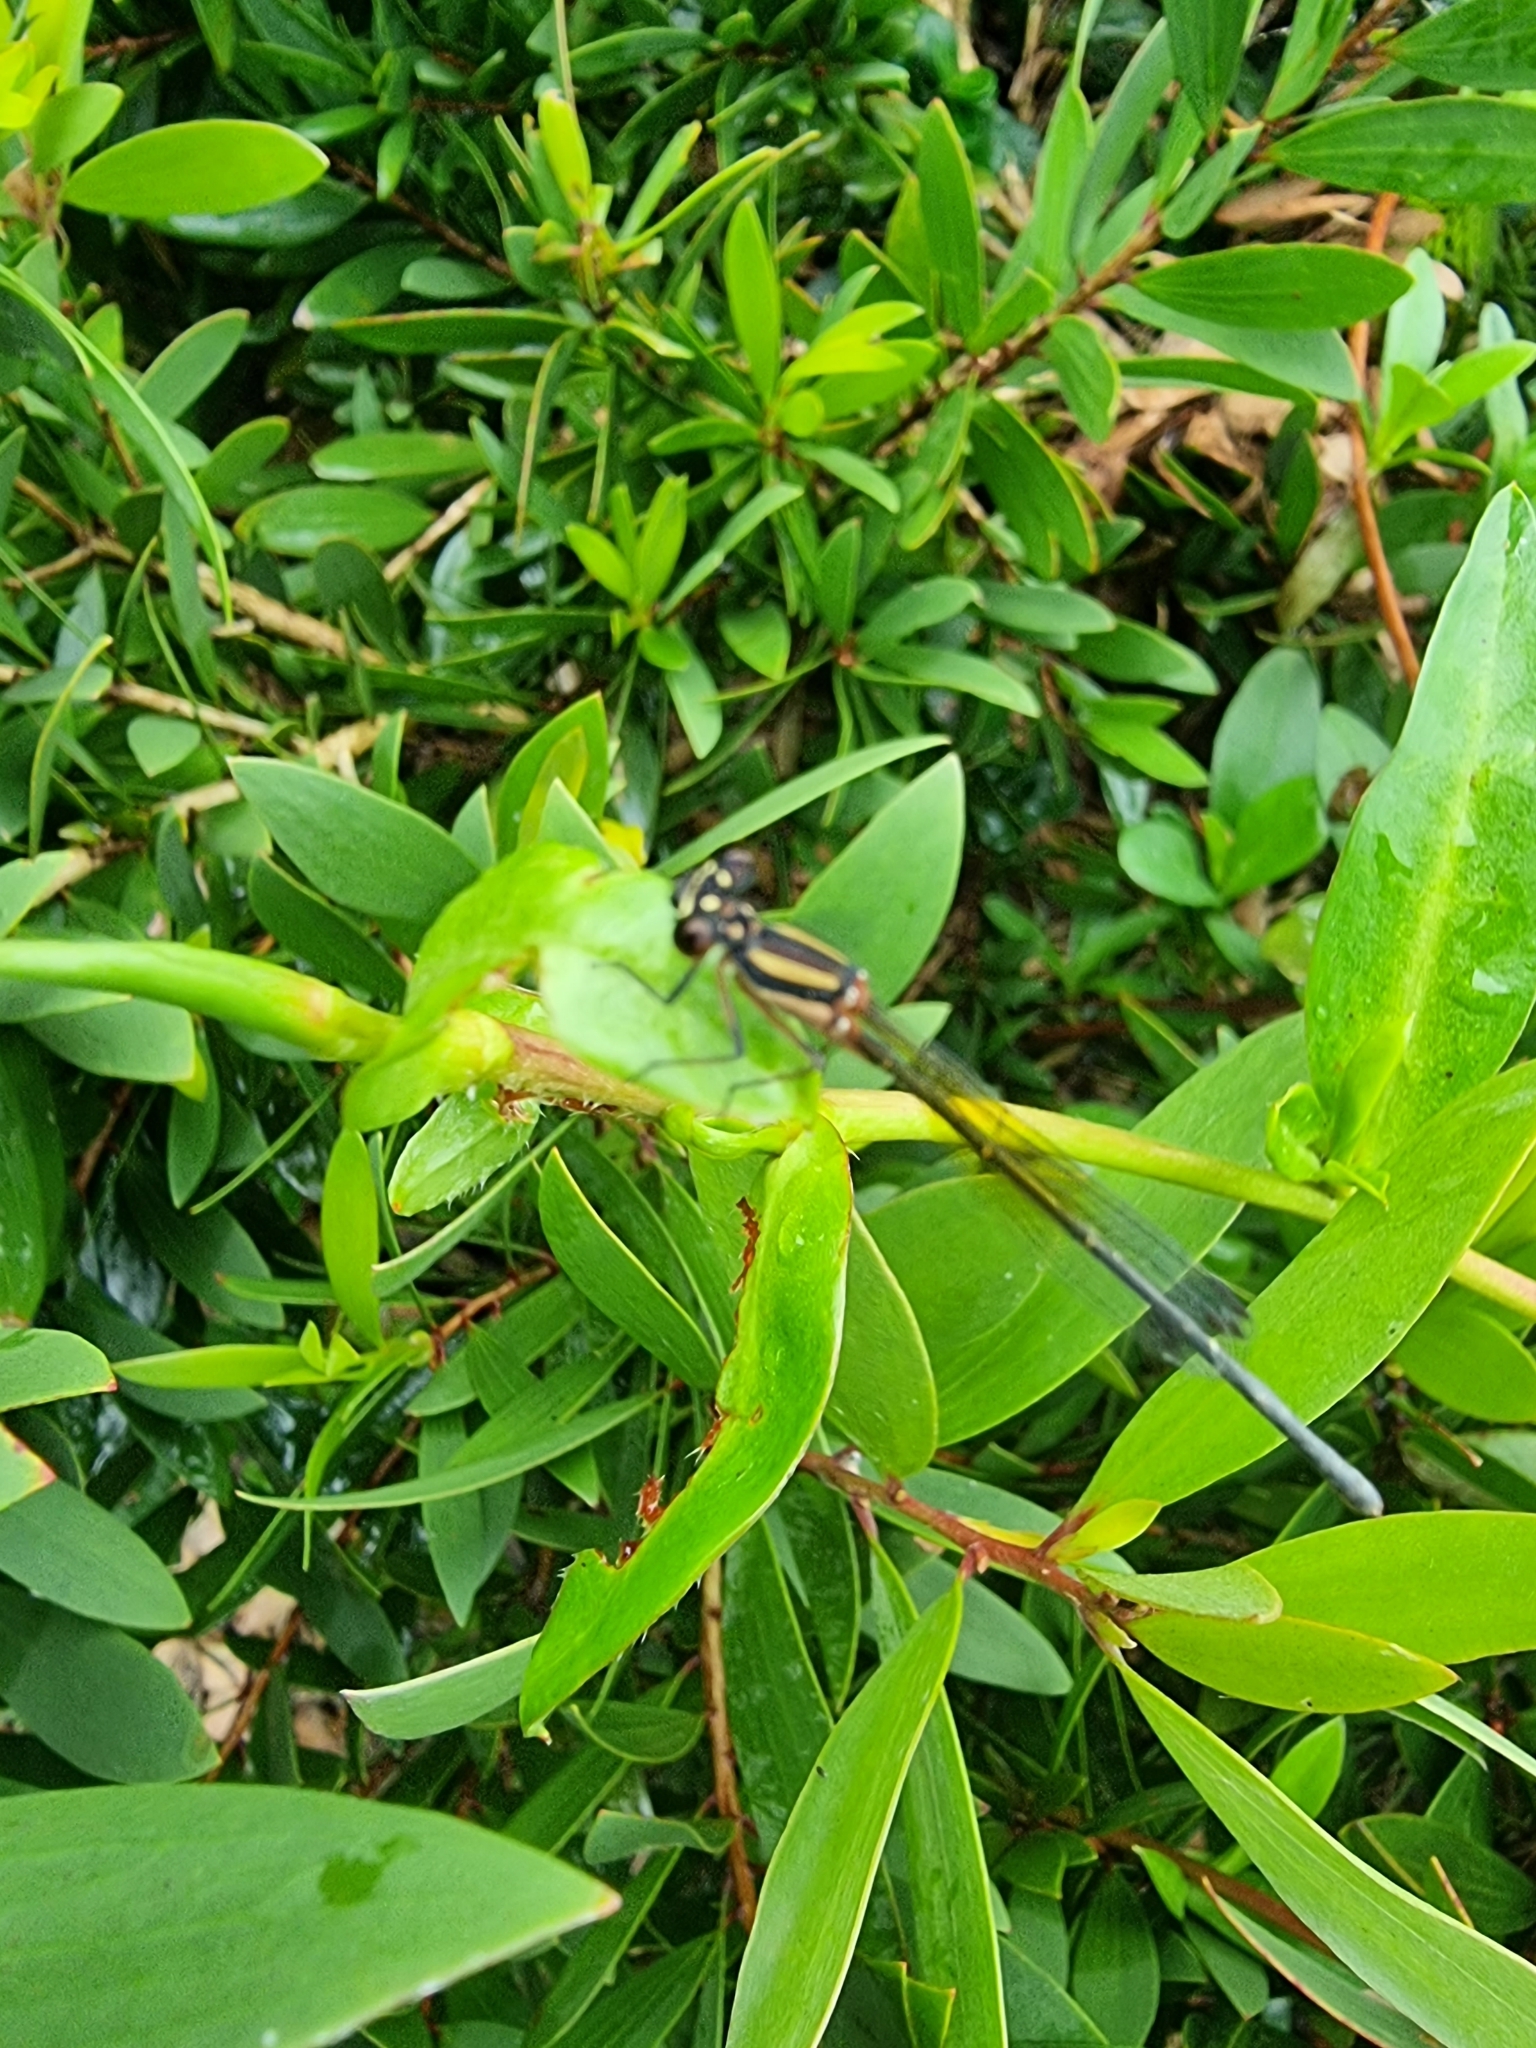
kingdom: Animalia
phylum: Arthropoda
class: Insecta
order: Odonata
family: Platycnemididae
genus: Nososticta
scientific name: Nososticta solida
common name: Orange threadtail
